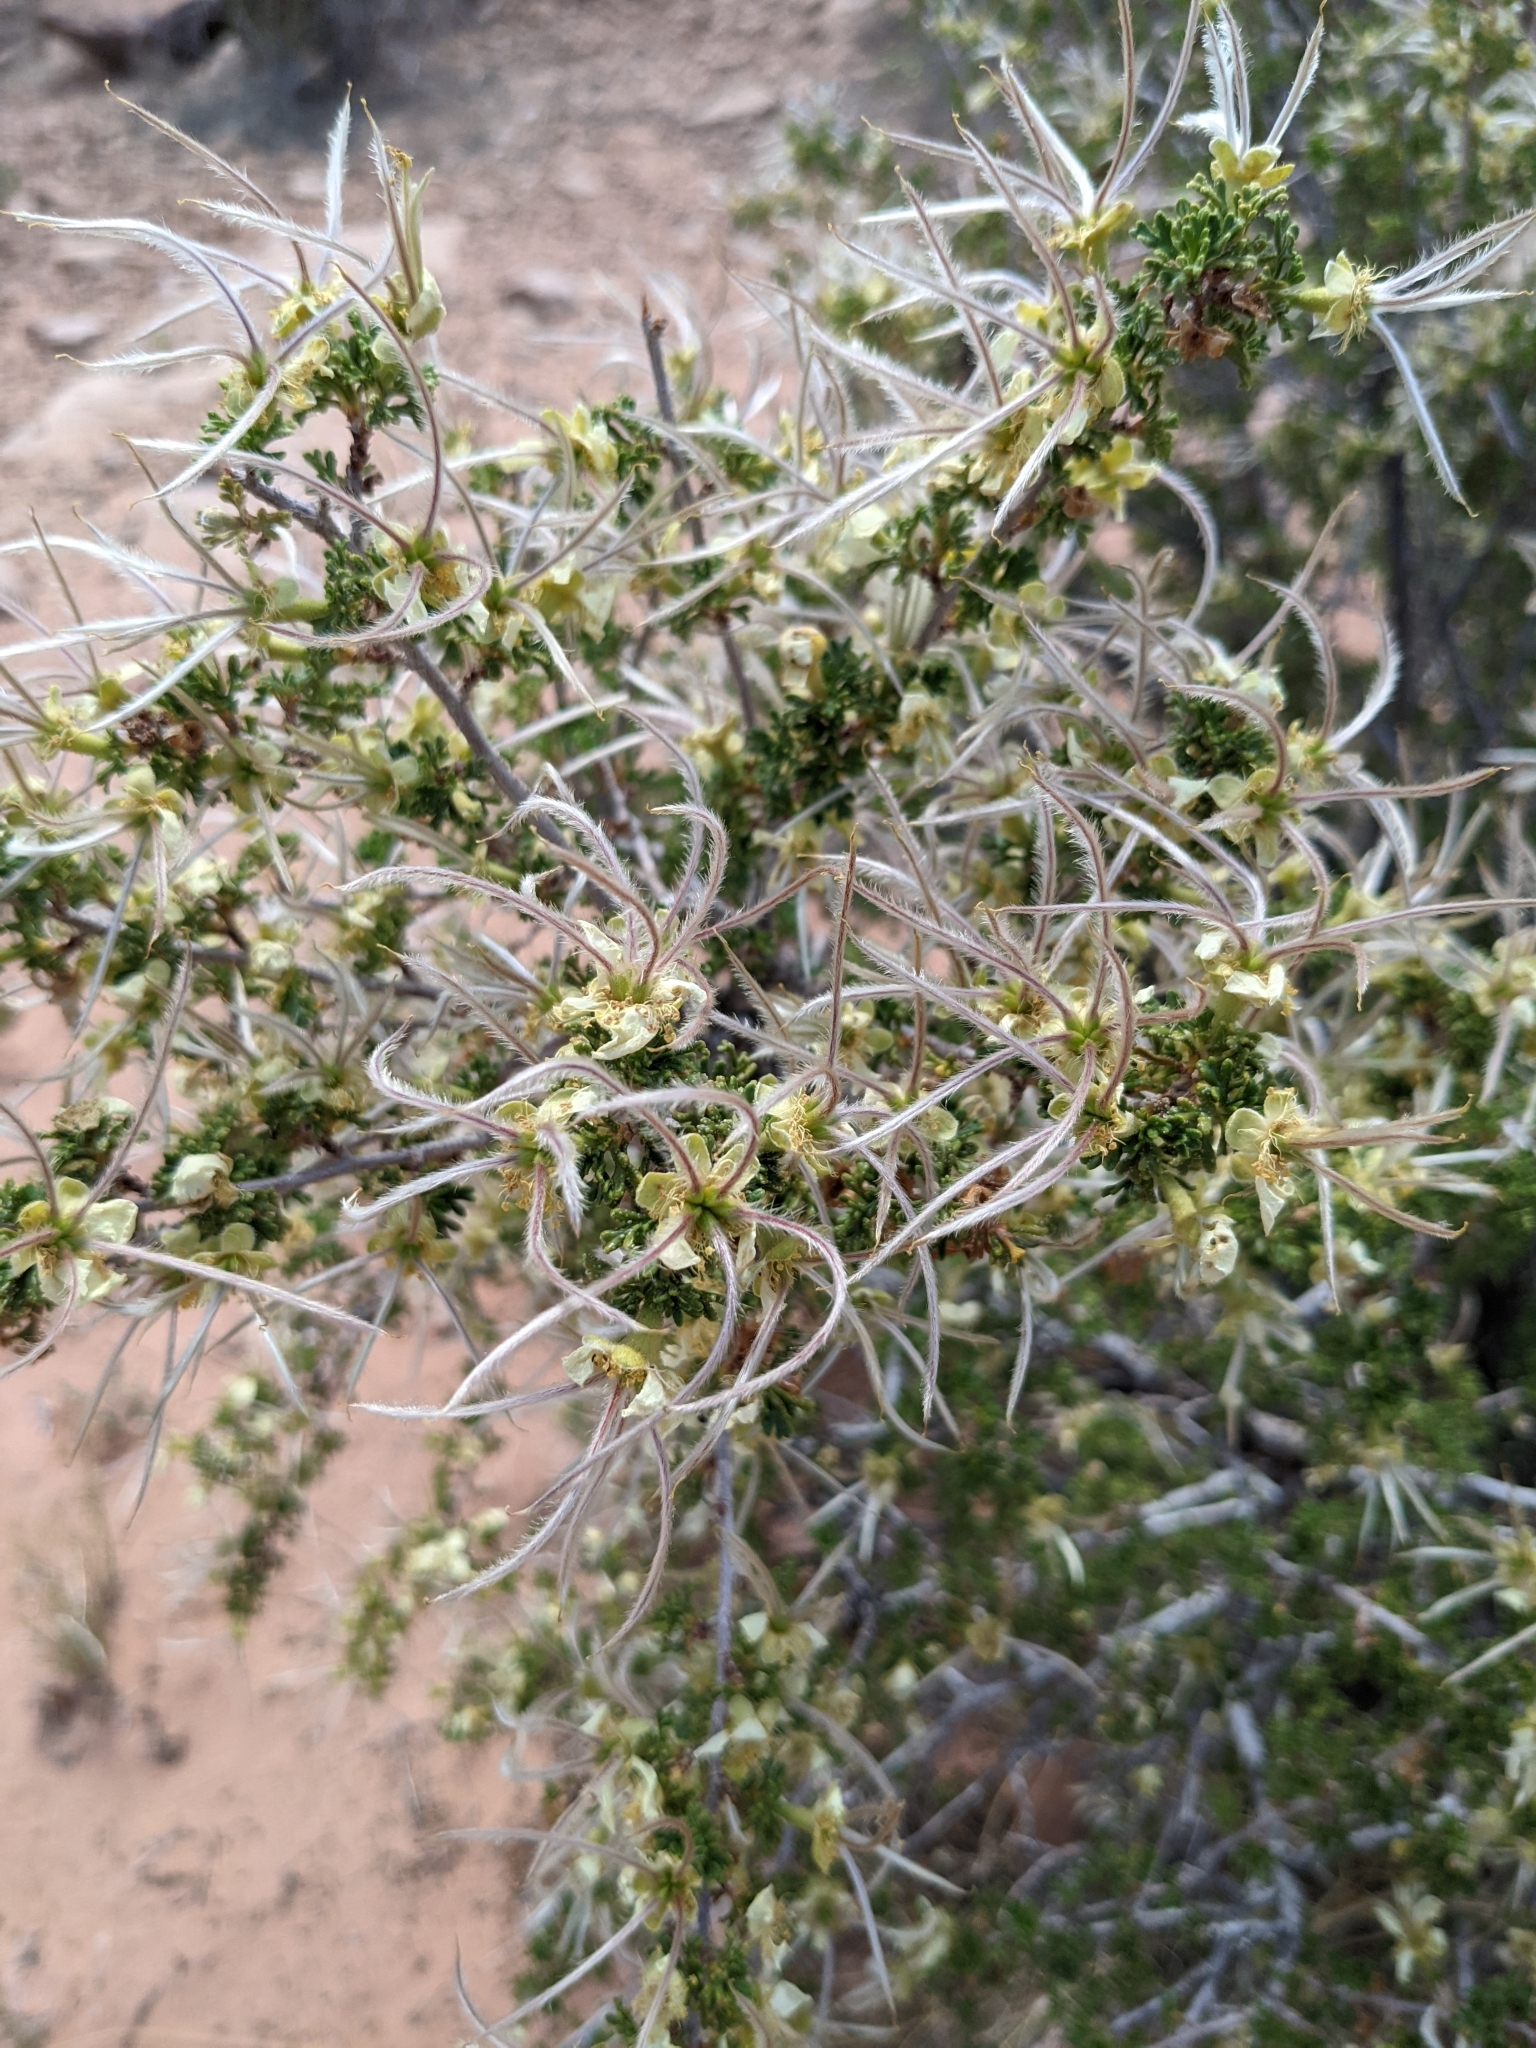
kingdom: Plantae
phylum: Tracheophyta
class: Magnoliopsida
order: Rosales
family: Rosaceae
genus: Purshia
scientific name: Purshia stansburiana
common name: Stansbury's cliffrose
